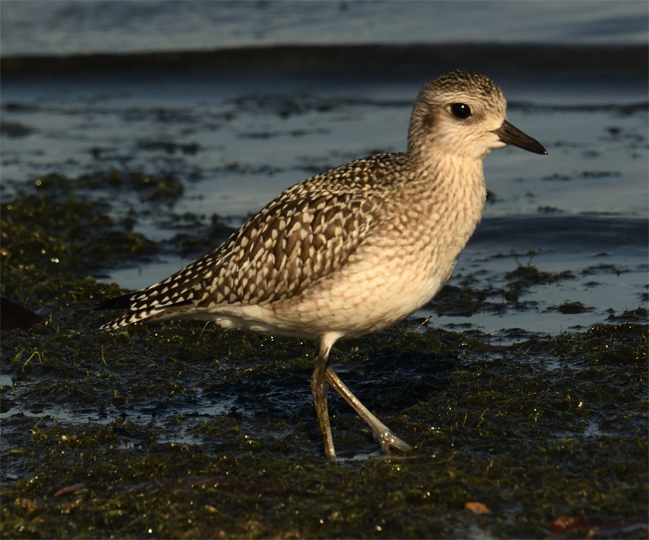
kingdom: Animalia
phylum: Chordata
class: Aves
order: Charadriiformes
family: Charadriidae
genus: Pluvialis
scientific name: Pluvialis squatarola
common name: Grey plover
